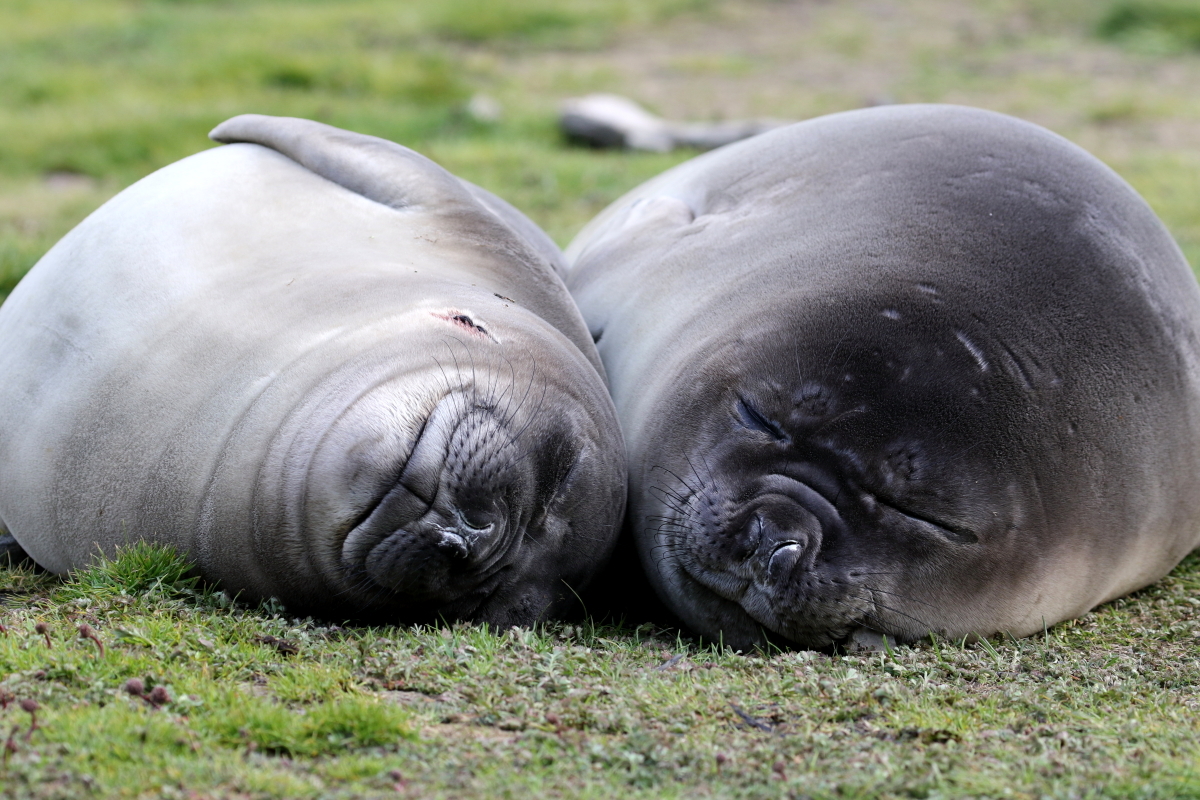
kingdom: Animalia
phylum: Chordata
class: Mammalia
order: Carnivora
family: Phocidae
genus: Mirounga
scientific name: Mirounga leonina
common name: Southern elephant seal
